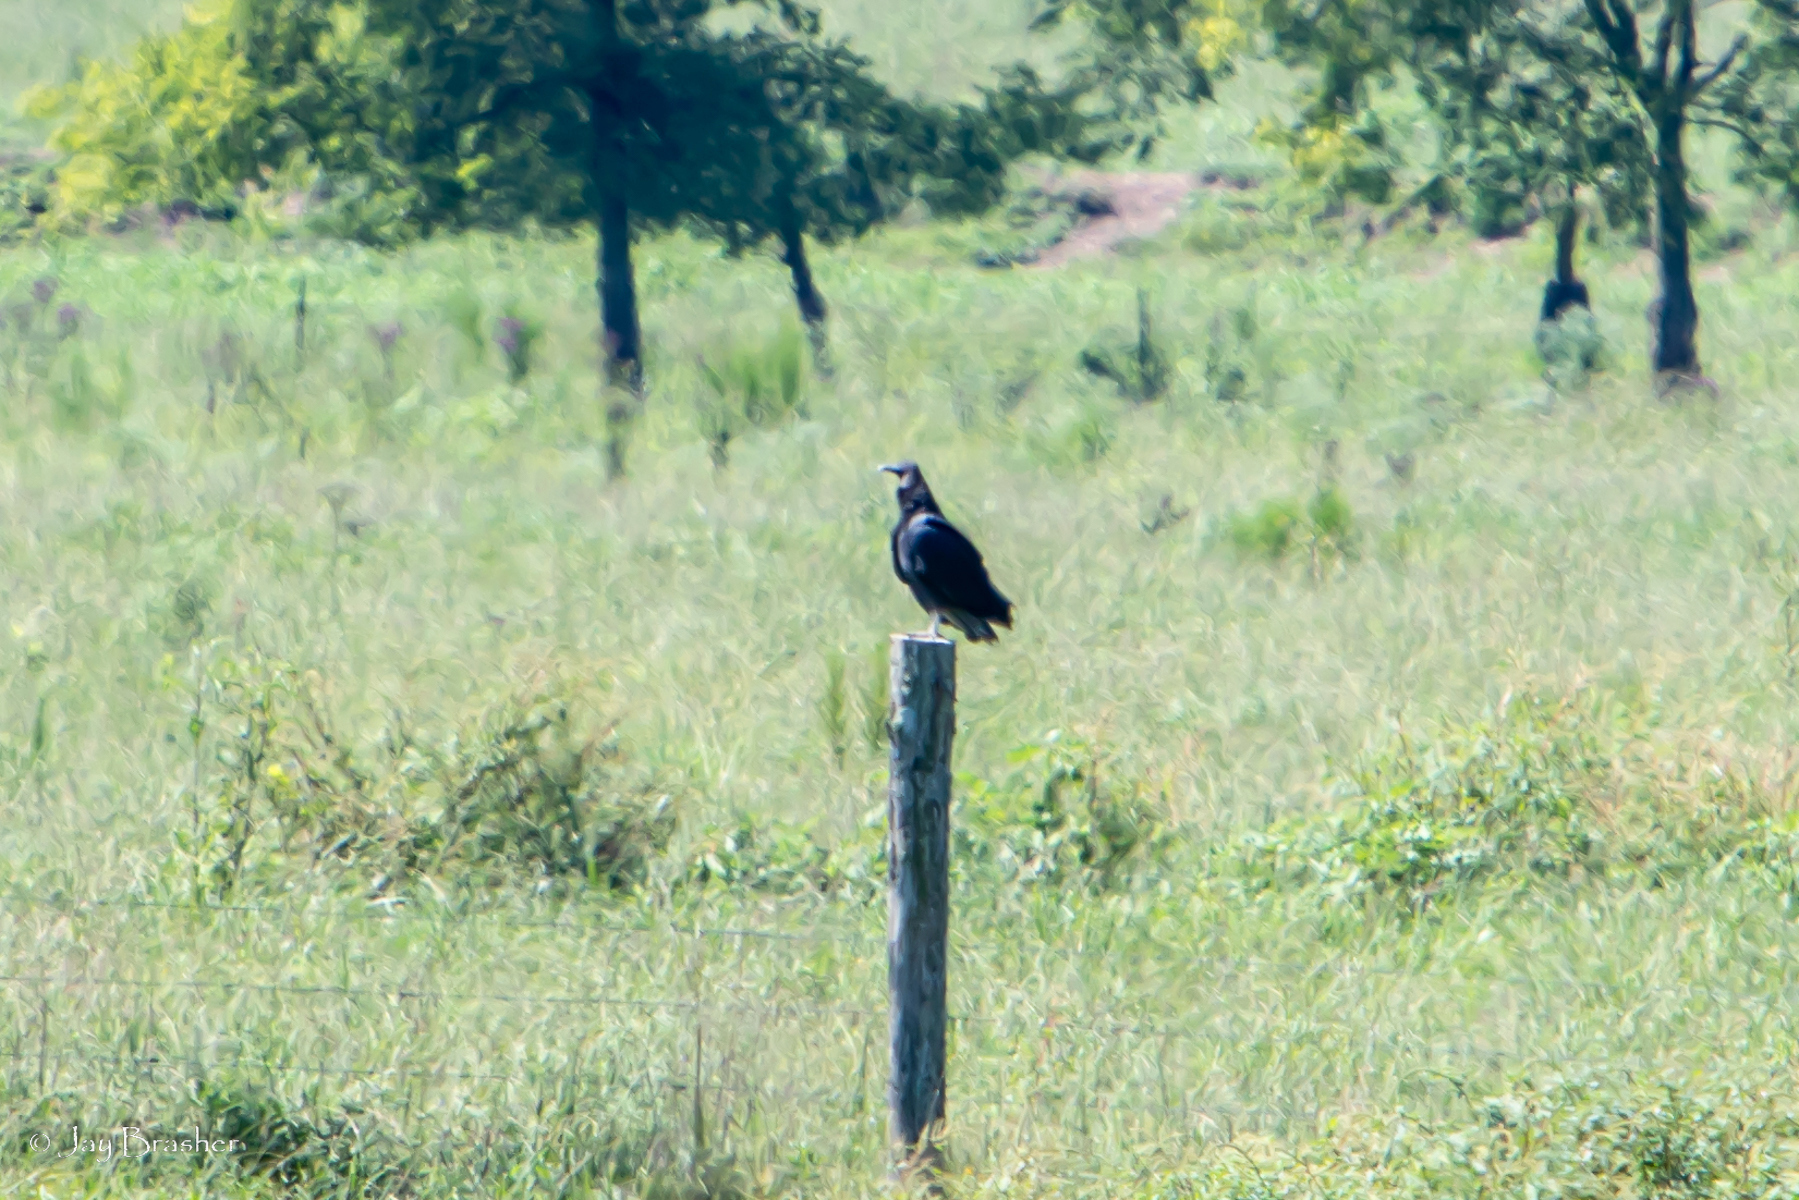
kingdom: Animalia
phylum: Chordata
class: Aves
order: Accipitriformes
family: Cathartidae
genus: Coragyps
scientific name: Coragyps atratus
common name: Black vulture
